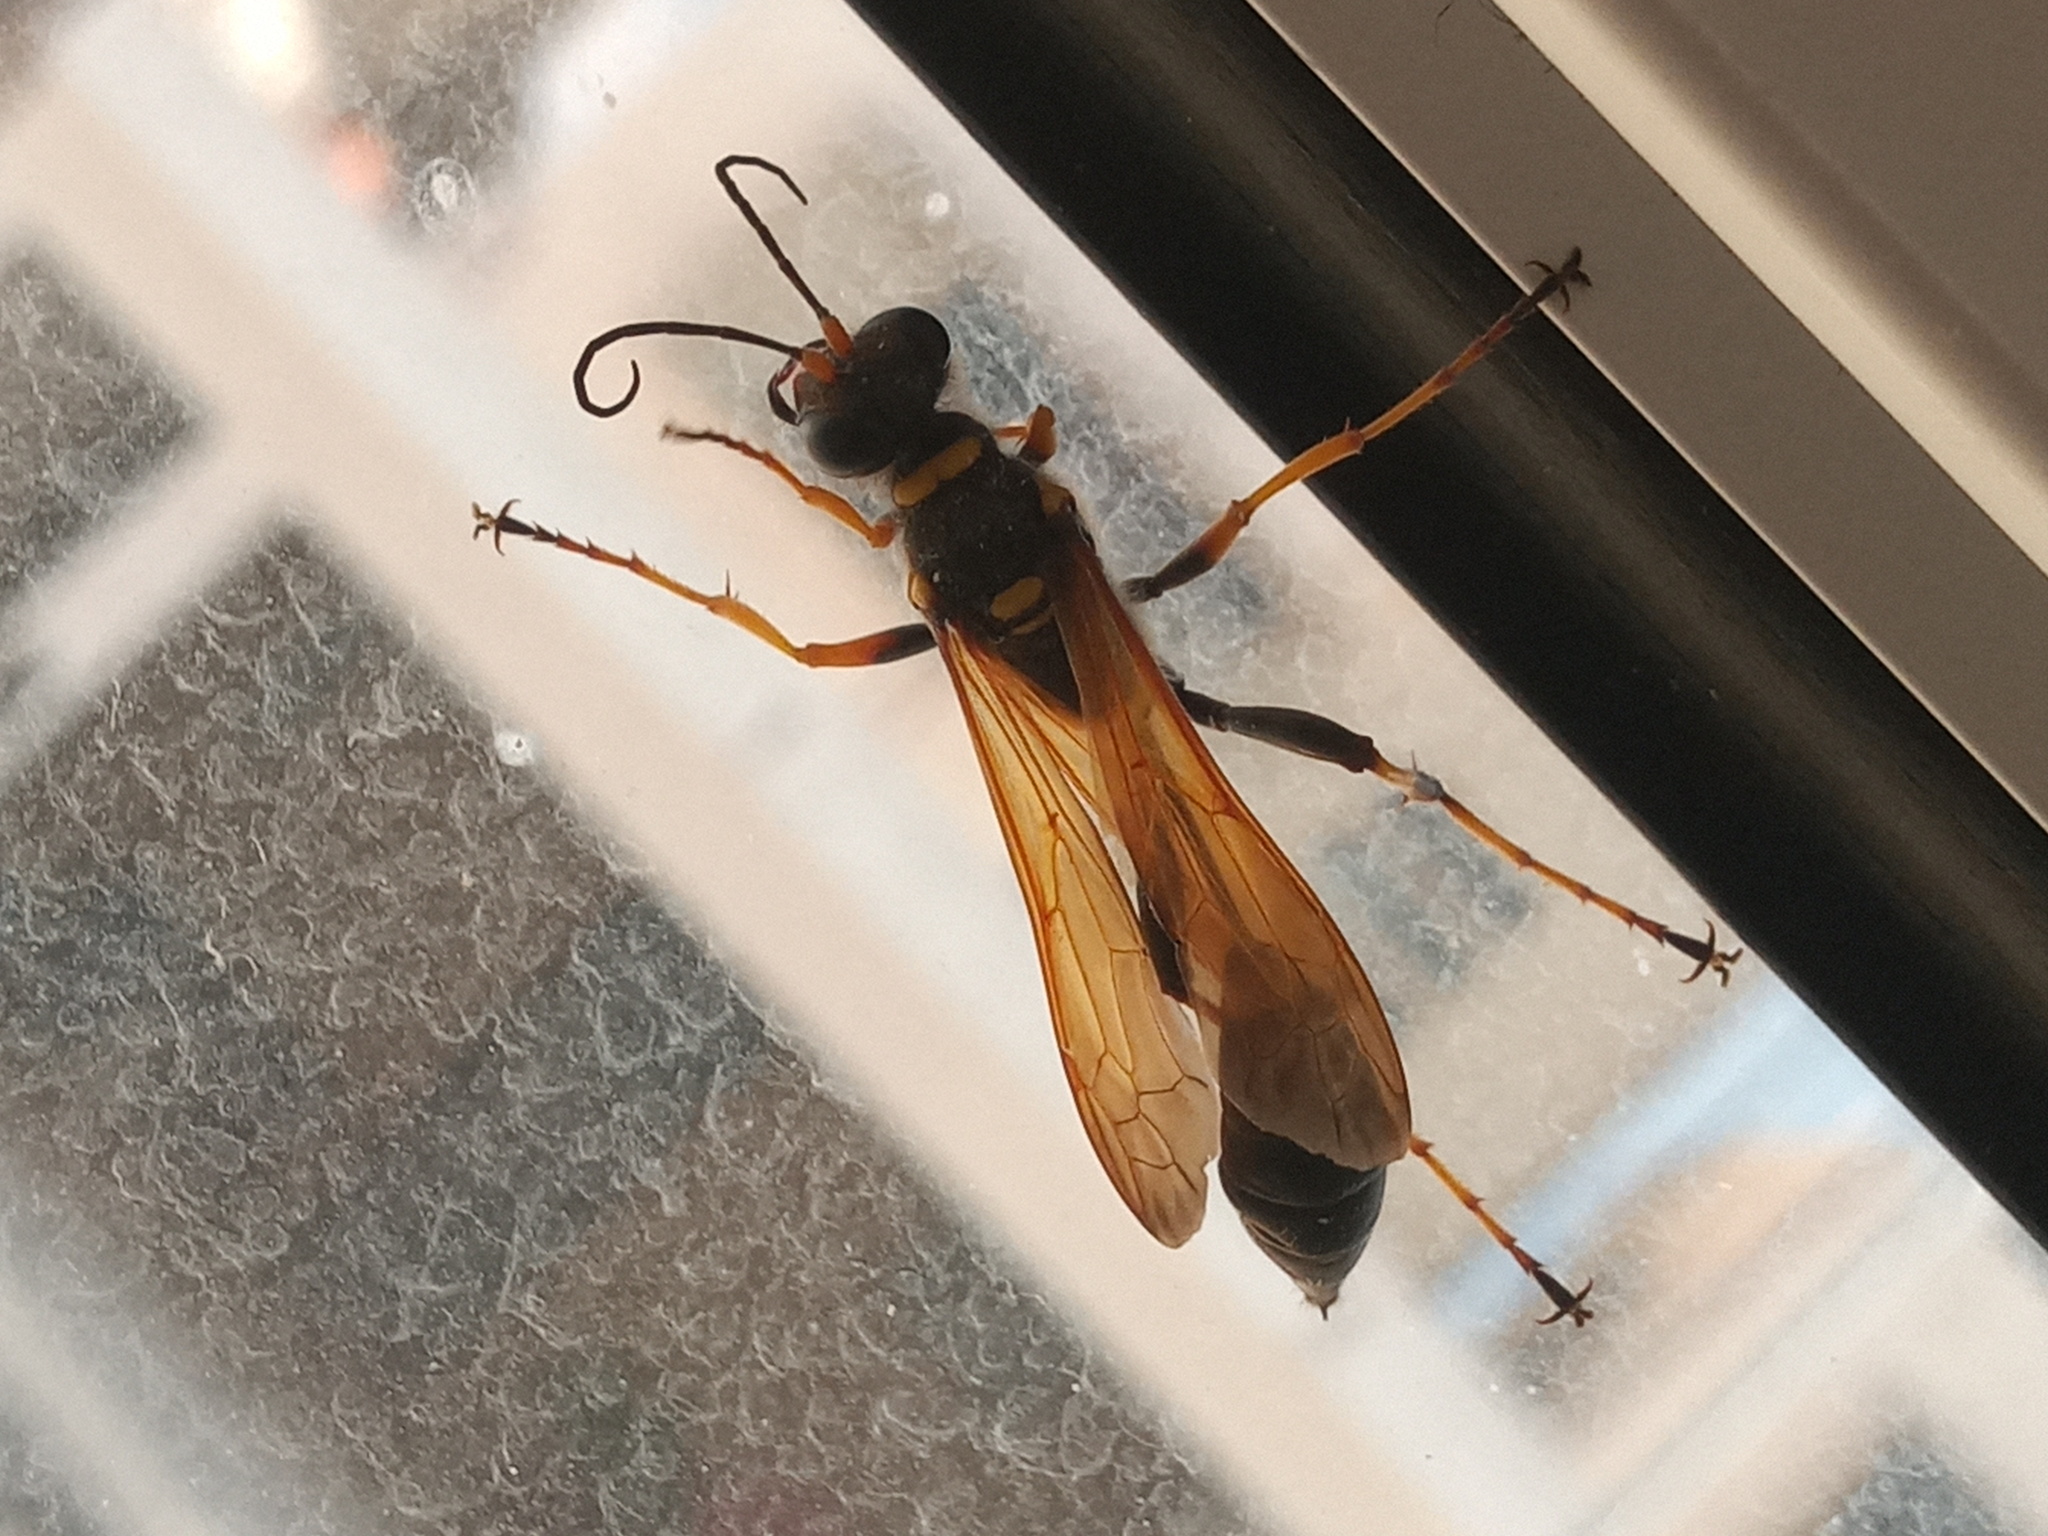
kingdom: Animalia
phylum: Arthropoda
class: Insecta
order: Hymenoptera
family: Sphecidae
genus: Sceliphron
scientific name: Sceliphron caementarium
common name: Mud dauber
